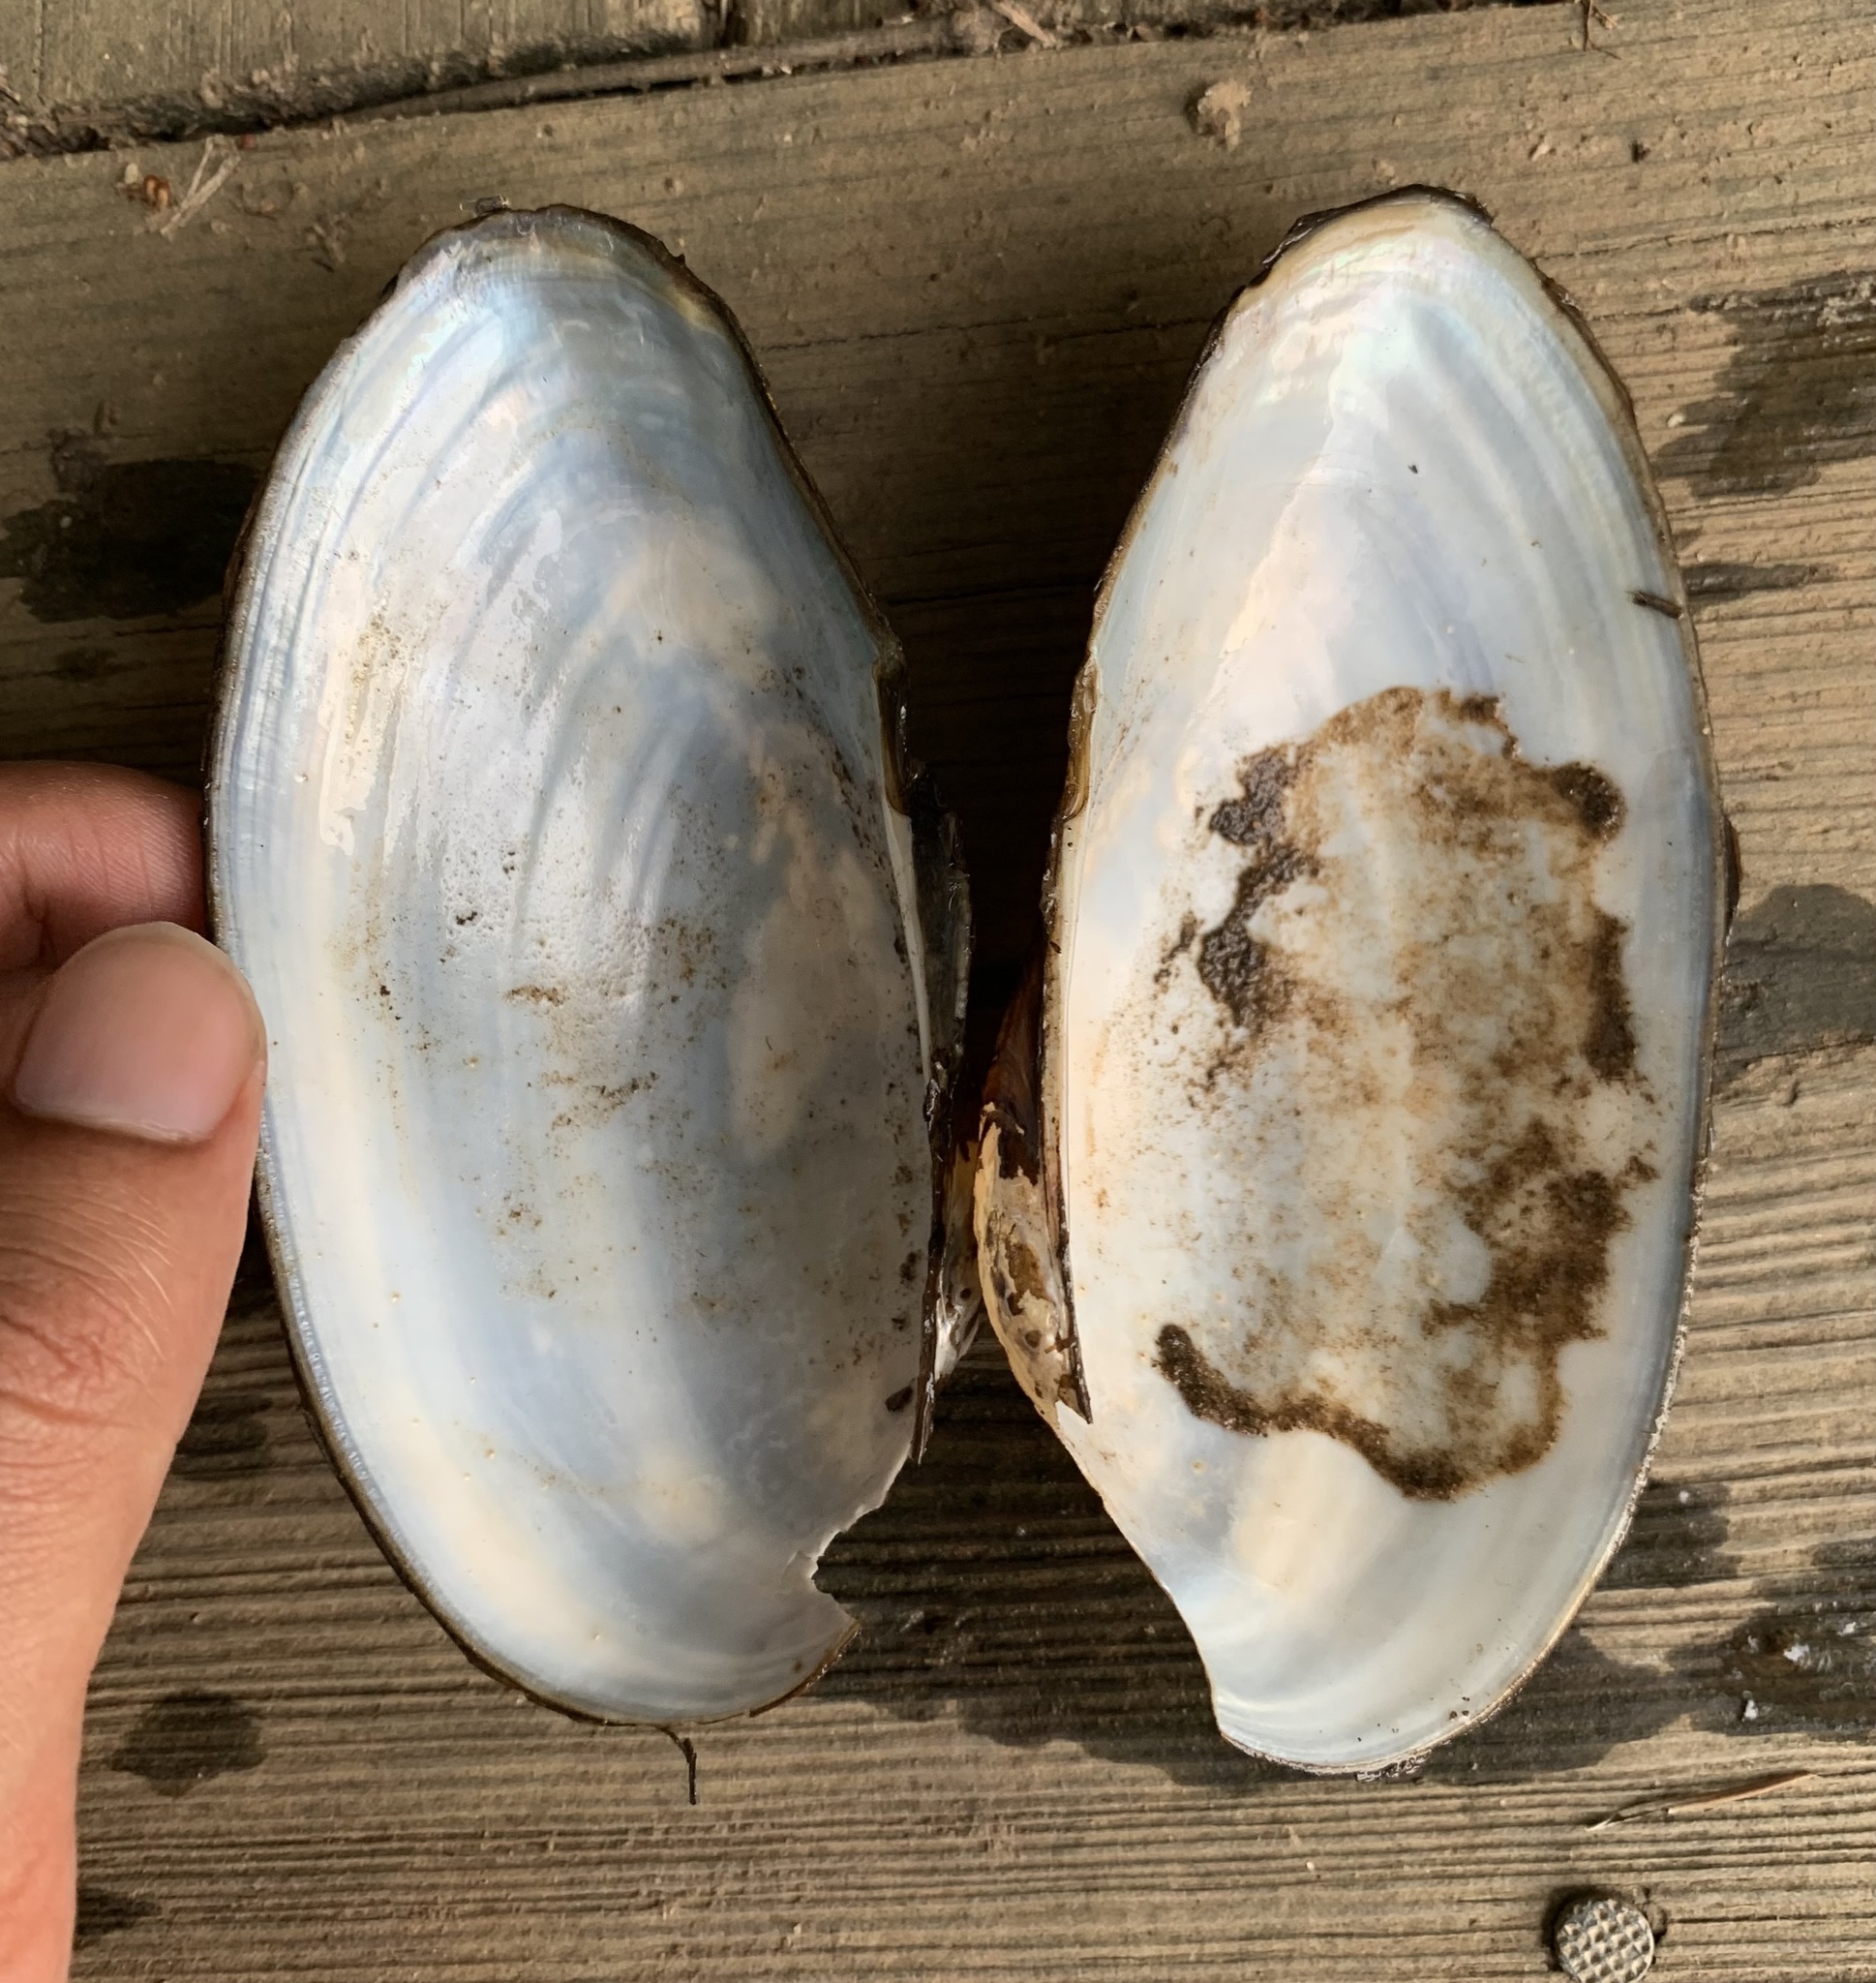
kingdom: Animalia
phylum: Mollusca
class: Bivalvia
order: Unionida
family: Unionidae
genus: Pyganodon
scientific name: Pyganodon cataracta
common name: Eastern floater
